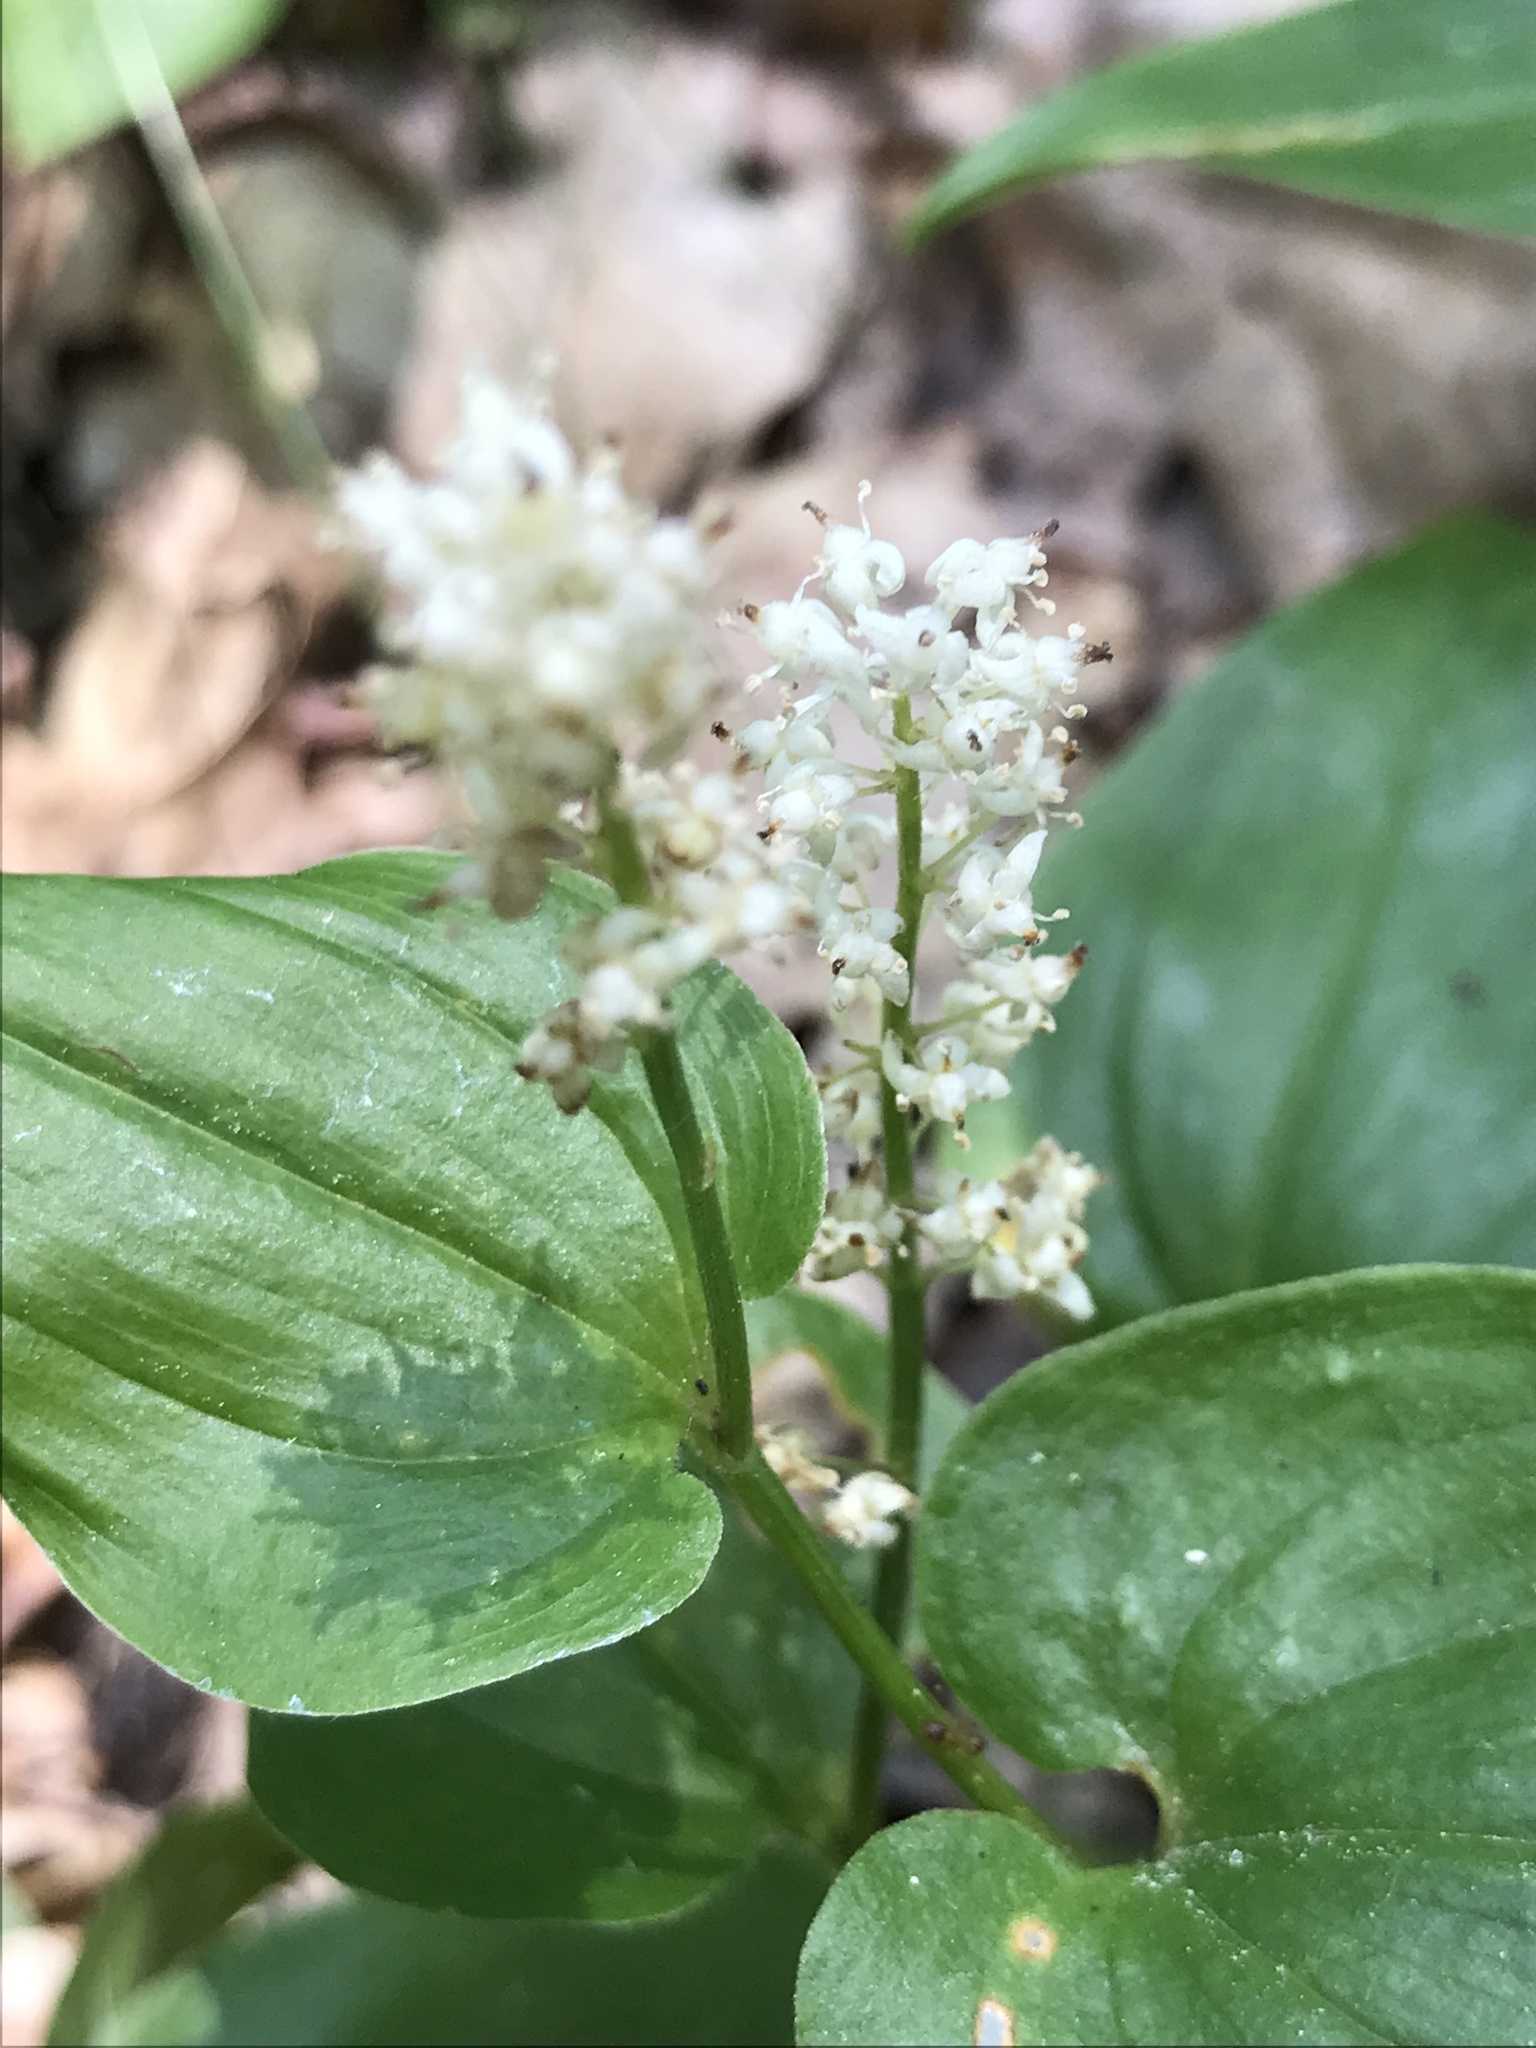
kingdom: Plantae
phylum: Tracheophyta
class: Liliopsida
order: Asparagales
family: Asparagaceae
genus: Maianthemum
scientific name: Maianthemum bifolium
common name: May lily
